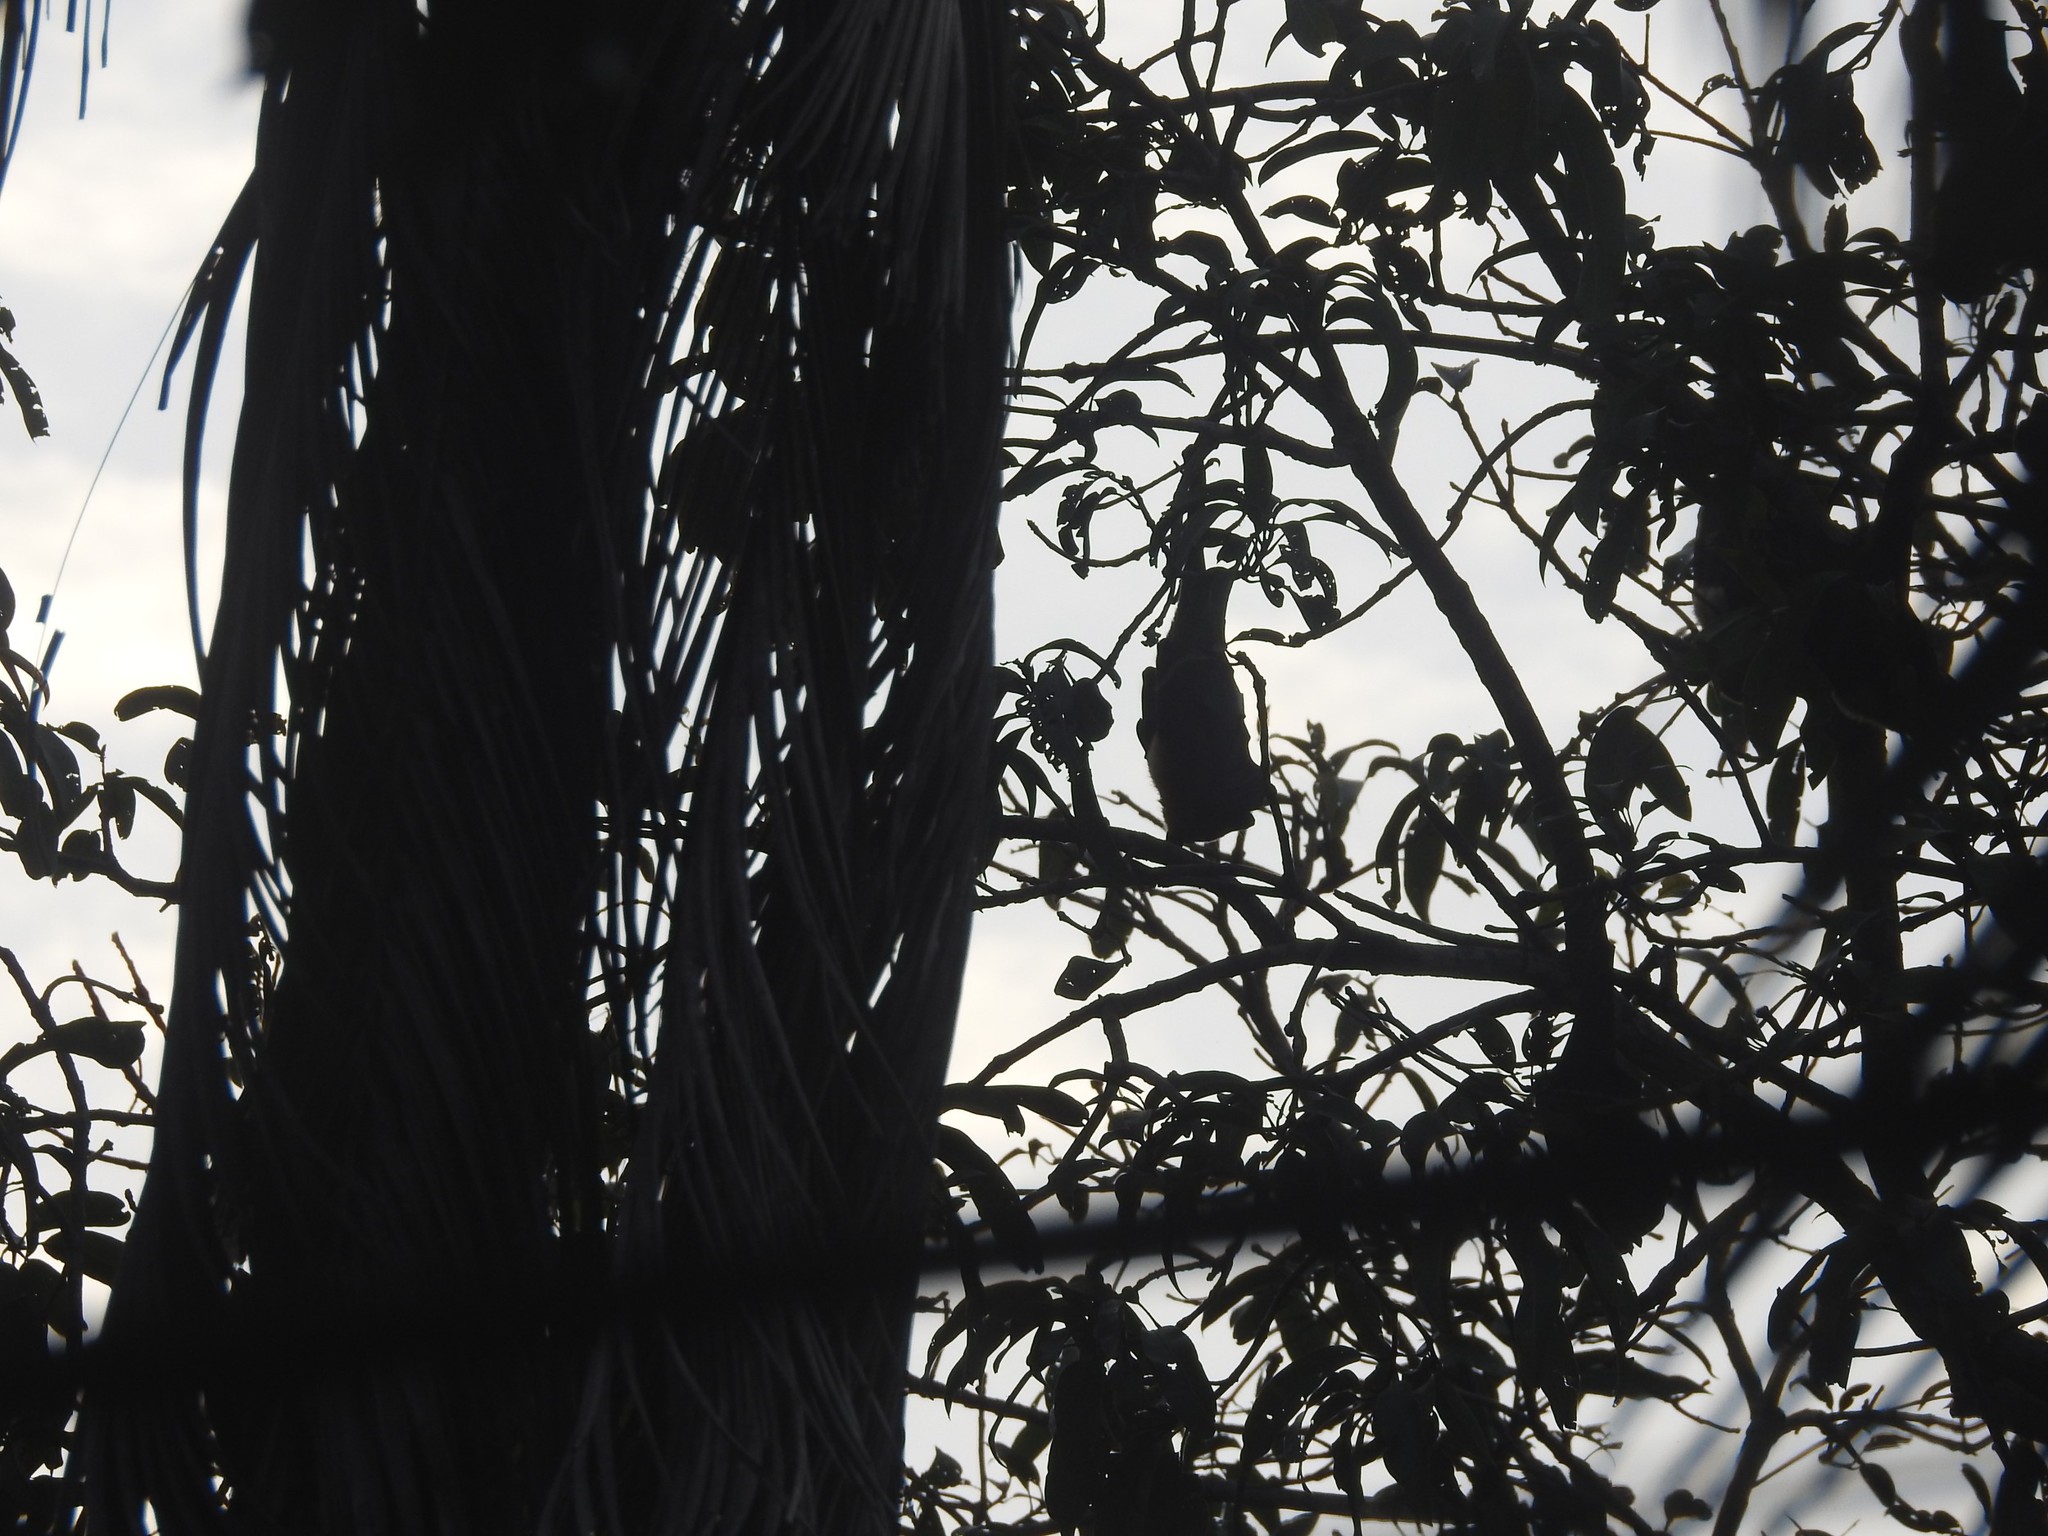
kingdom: Animalia
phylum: Chordata
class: Mammalia
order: Chiroptera
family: Pteropodidae
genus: Pteropus
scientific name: Pteropus vampyrus
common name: Large flying fox
